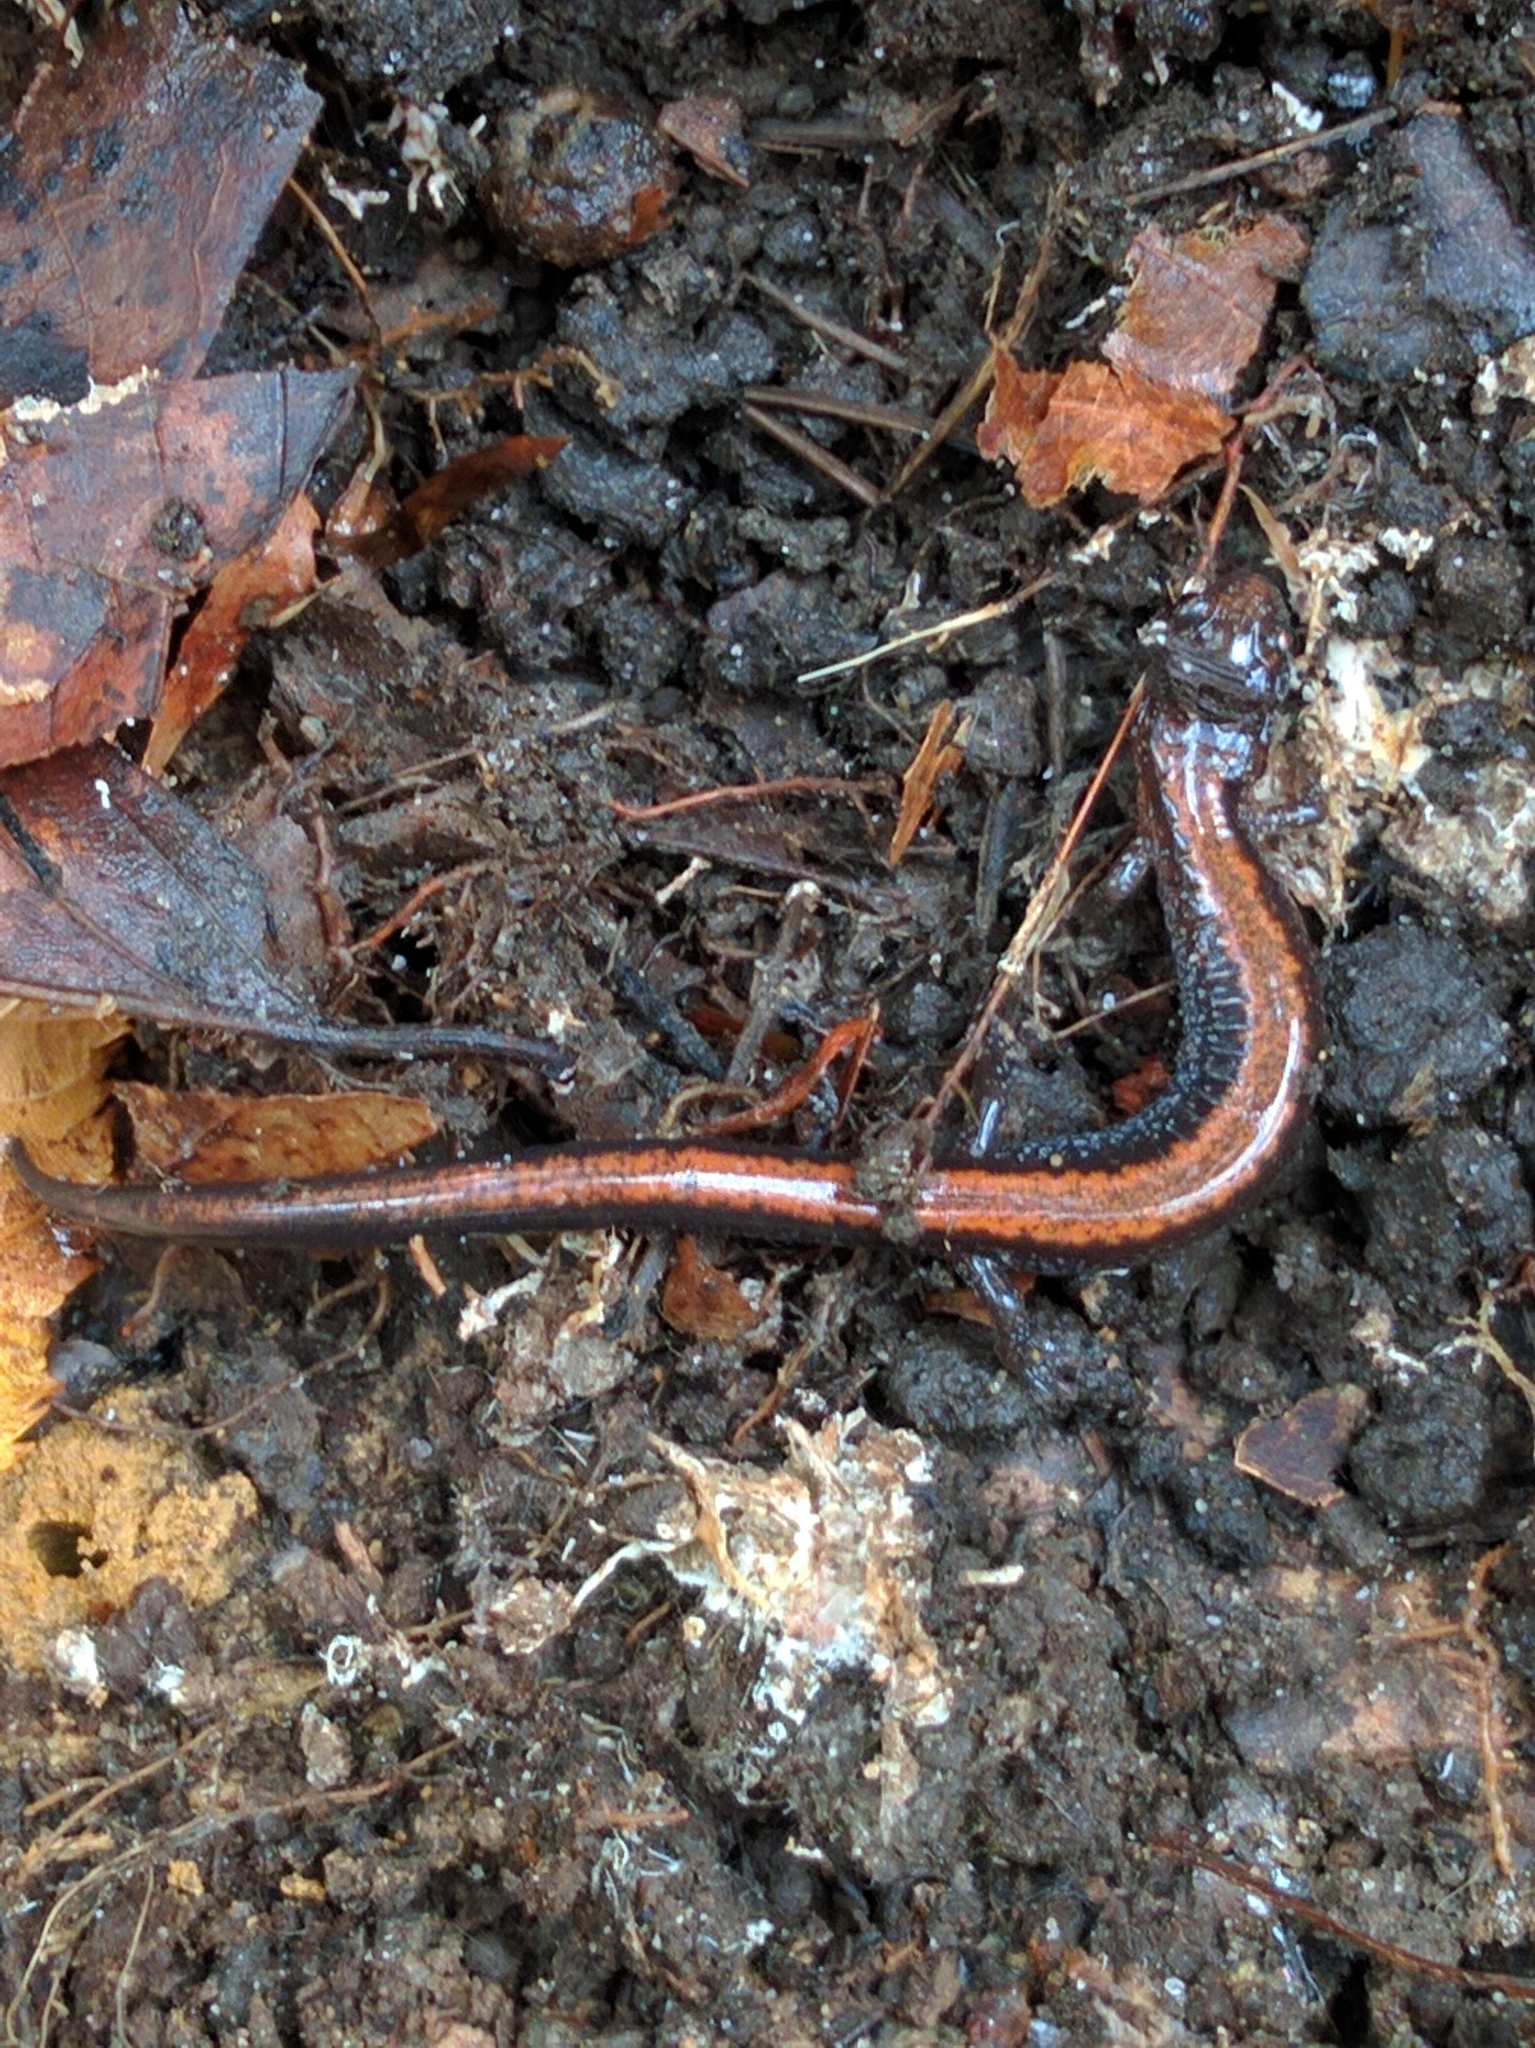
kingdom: Animalia
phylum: Chordata
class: Amphibia
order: Caudata
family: Plethodontidae
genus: Plethodon
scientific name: Plethodon cinereus
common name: Redback salamander
